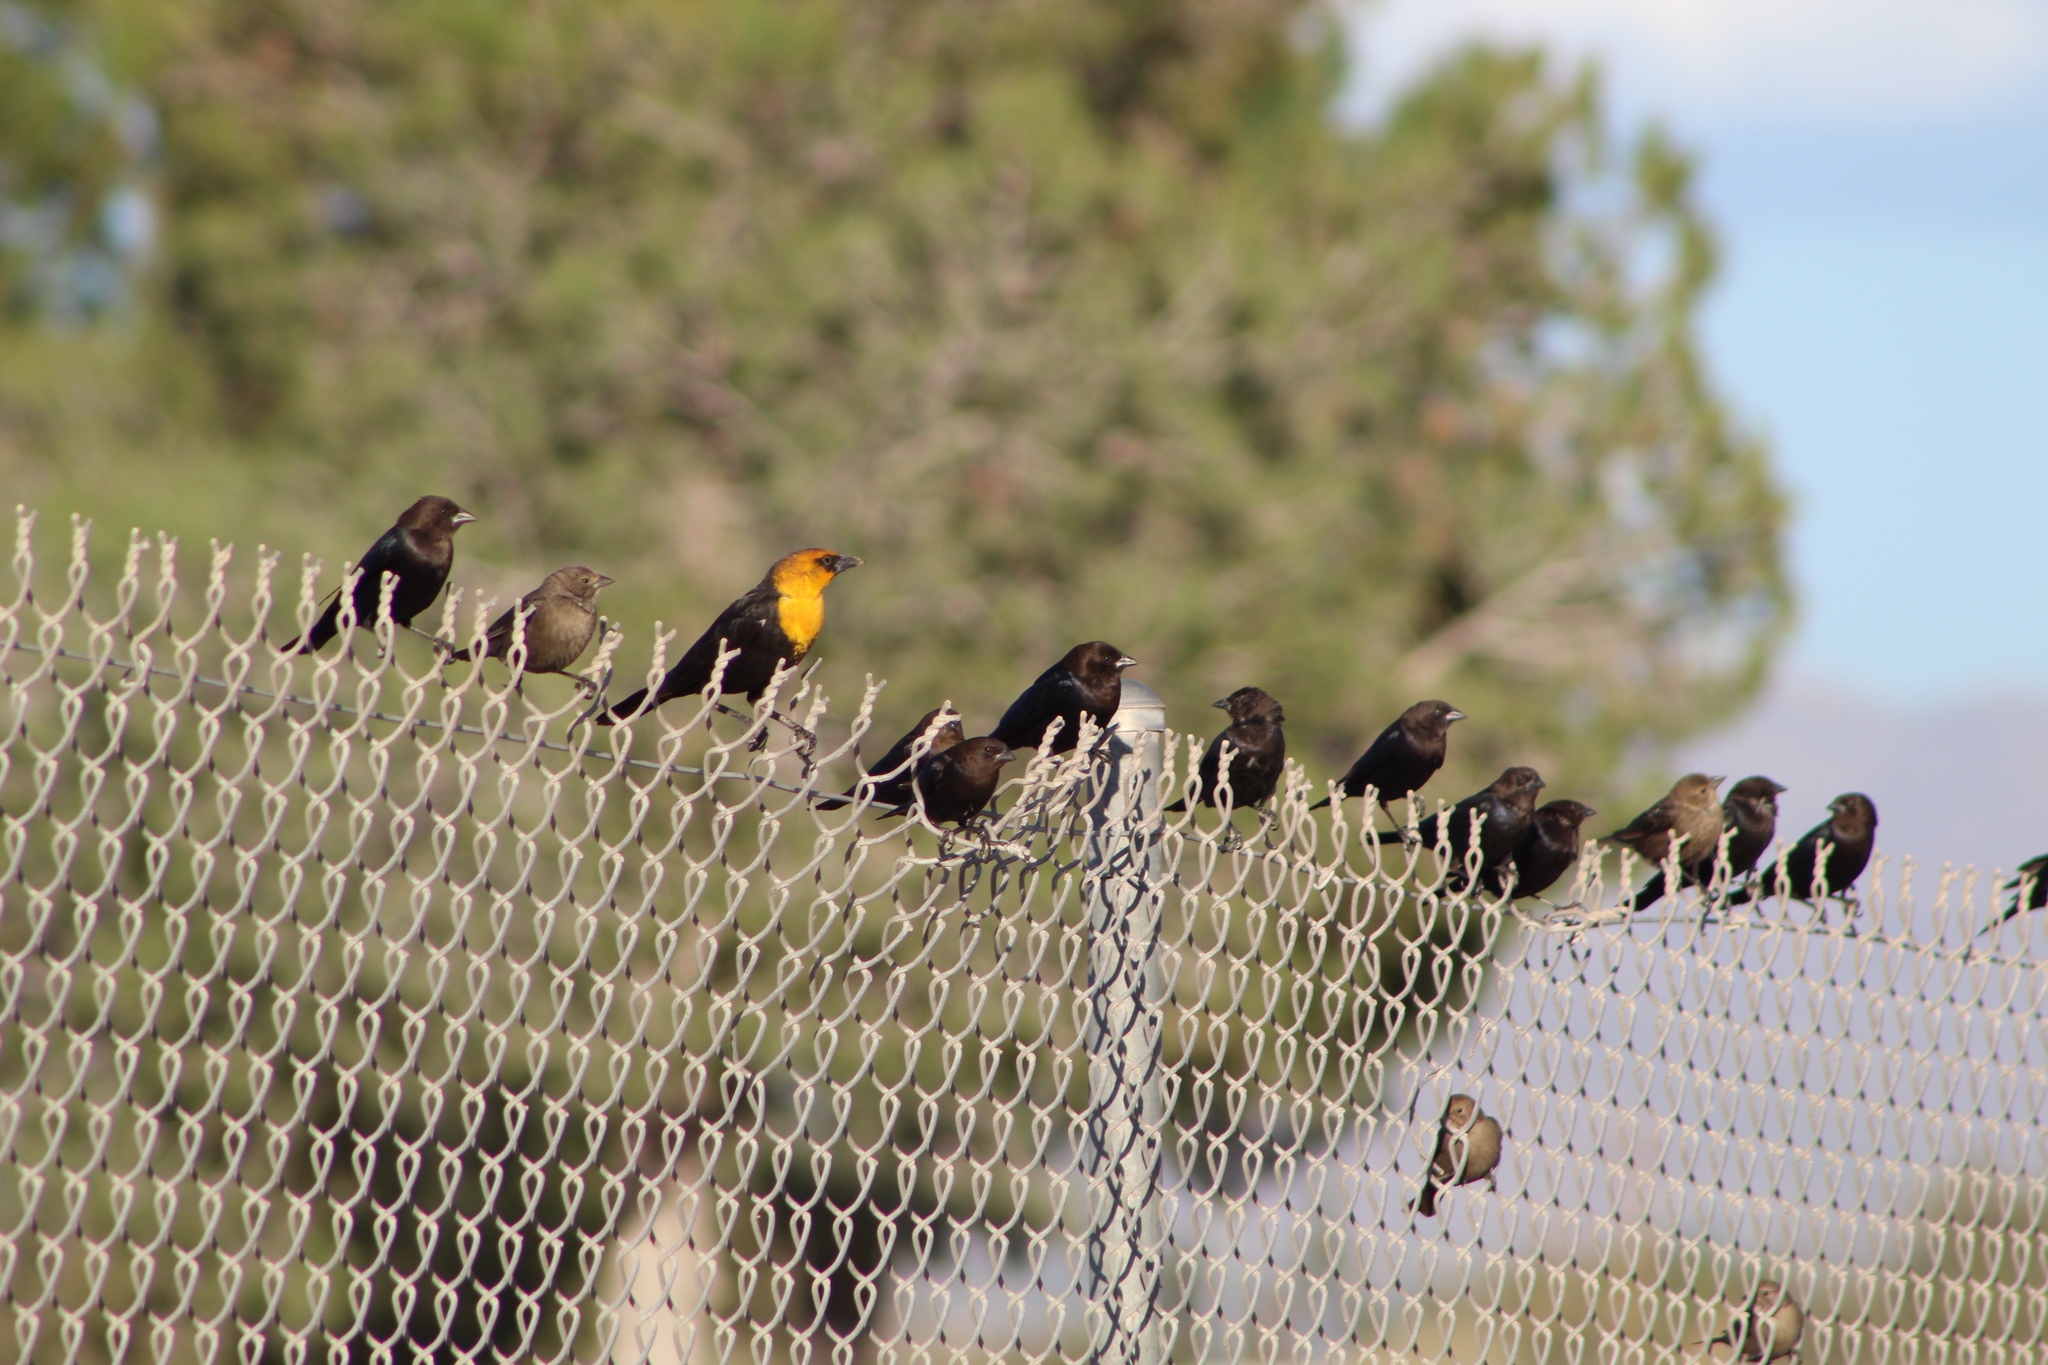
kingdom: Animalia
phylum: Chordata
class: Aves
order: Passeriformes
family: Icteridae
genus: Xanthocephalus
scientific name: Xanthocephalus xanthocephalus
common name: Yellow-headed blackbird
